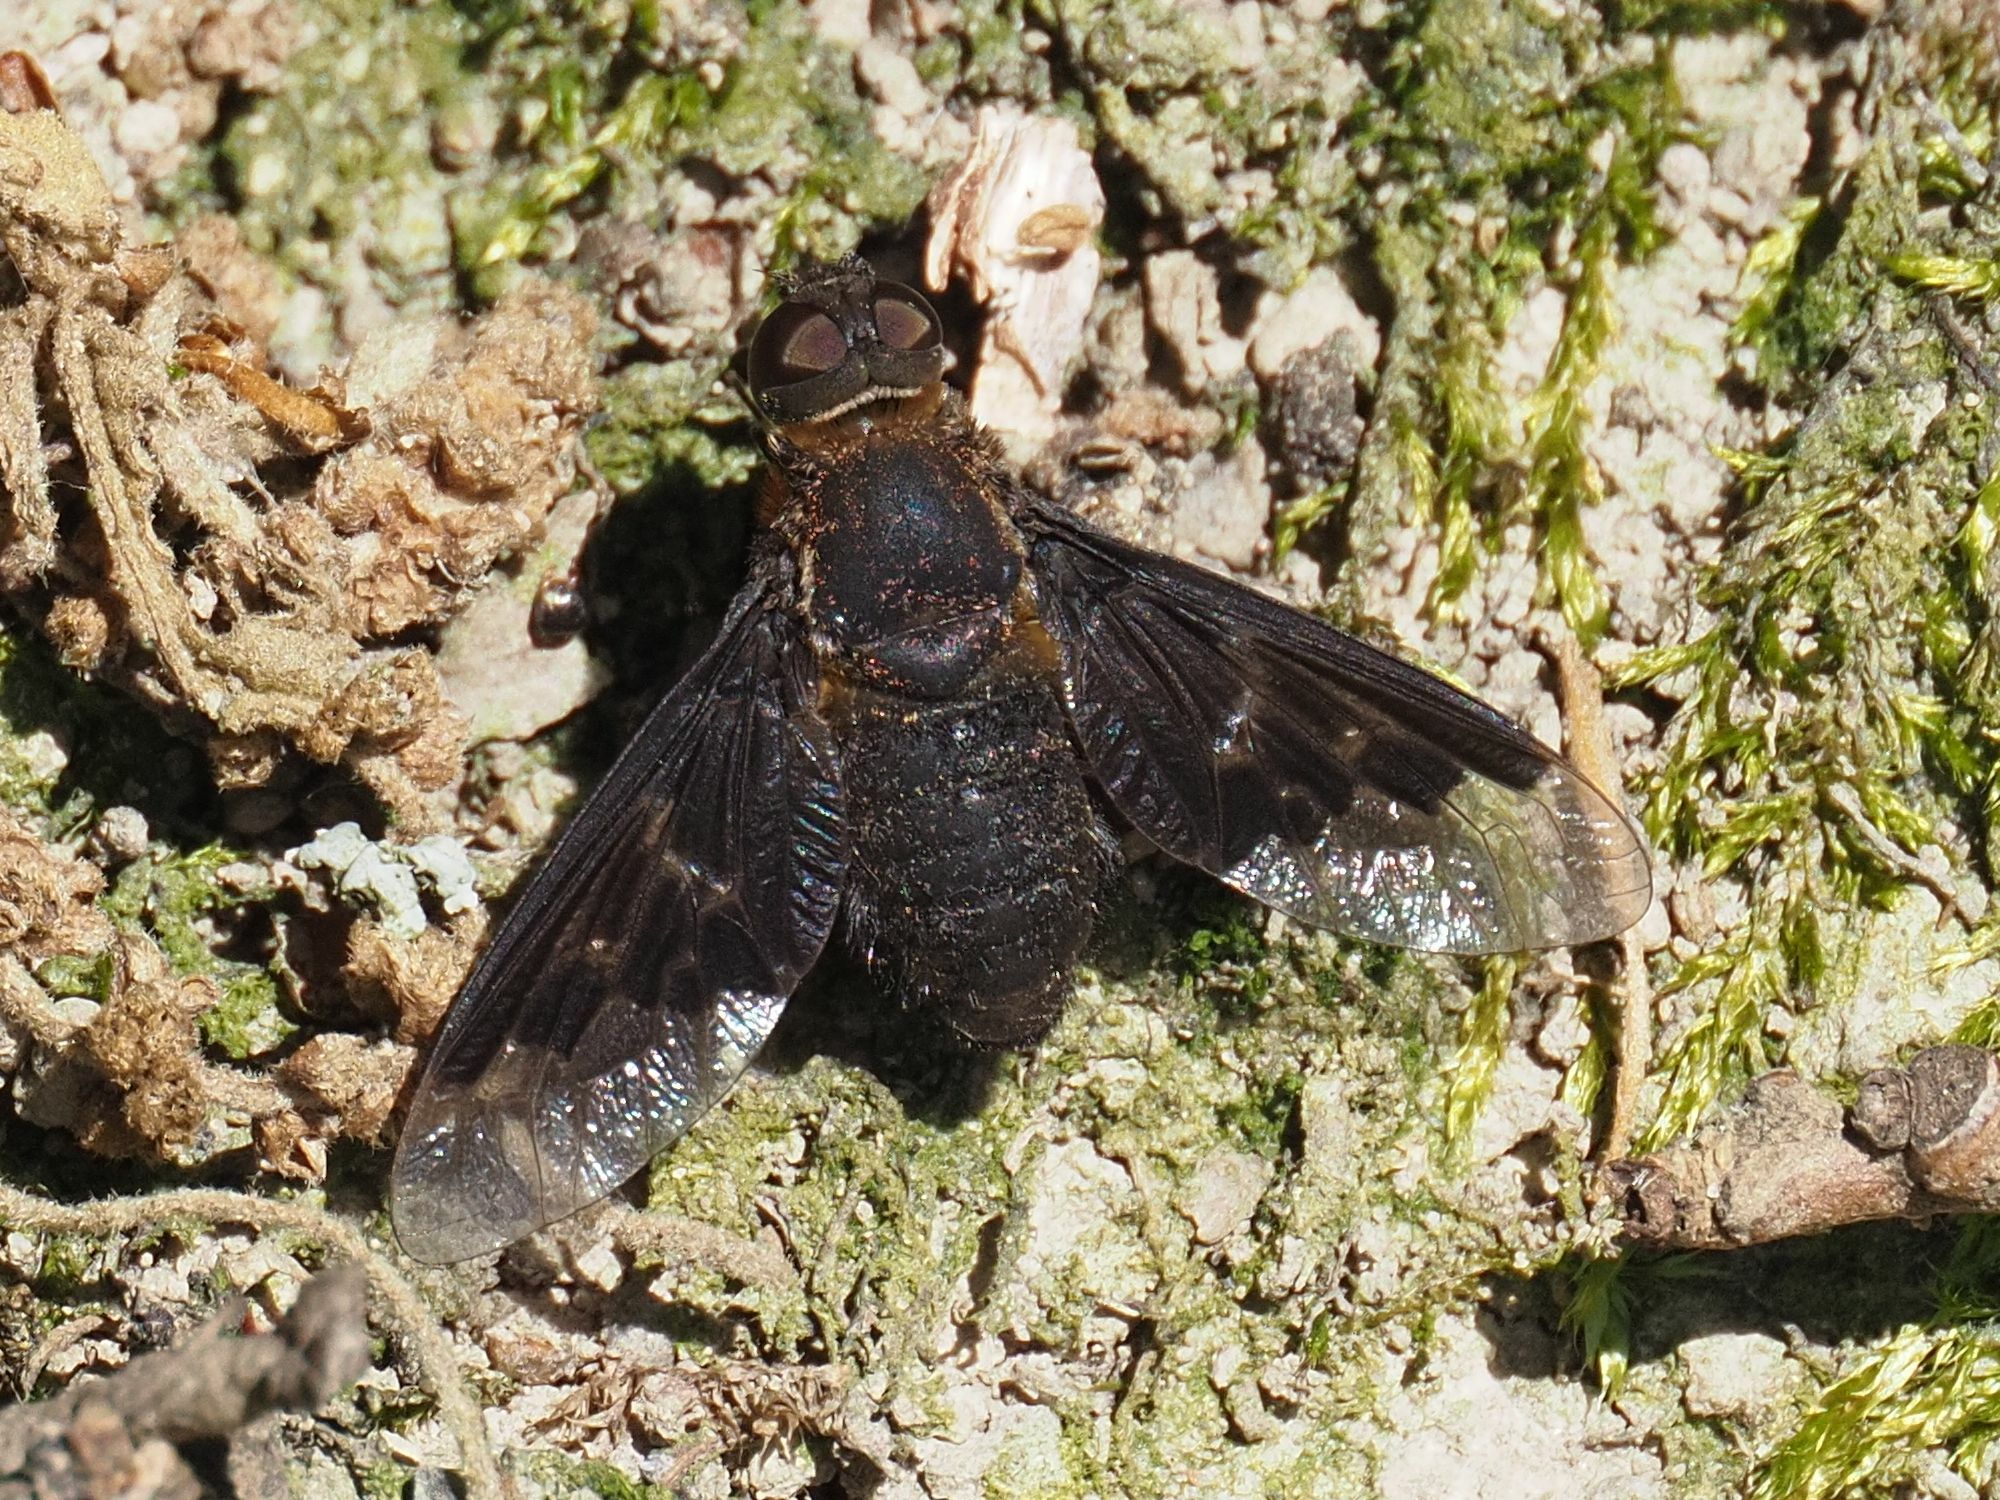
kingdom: Animalia
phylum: Arthropoda
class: Insecta
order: Diptera
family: Bombyliidae
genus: Hemipenthes
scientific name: Hemipenthes morio
